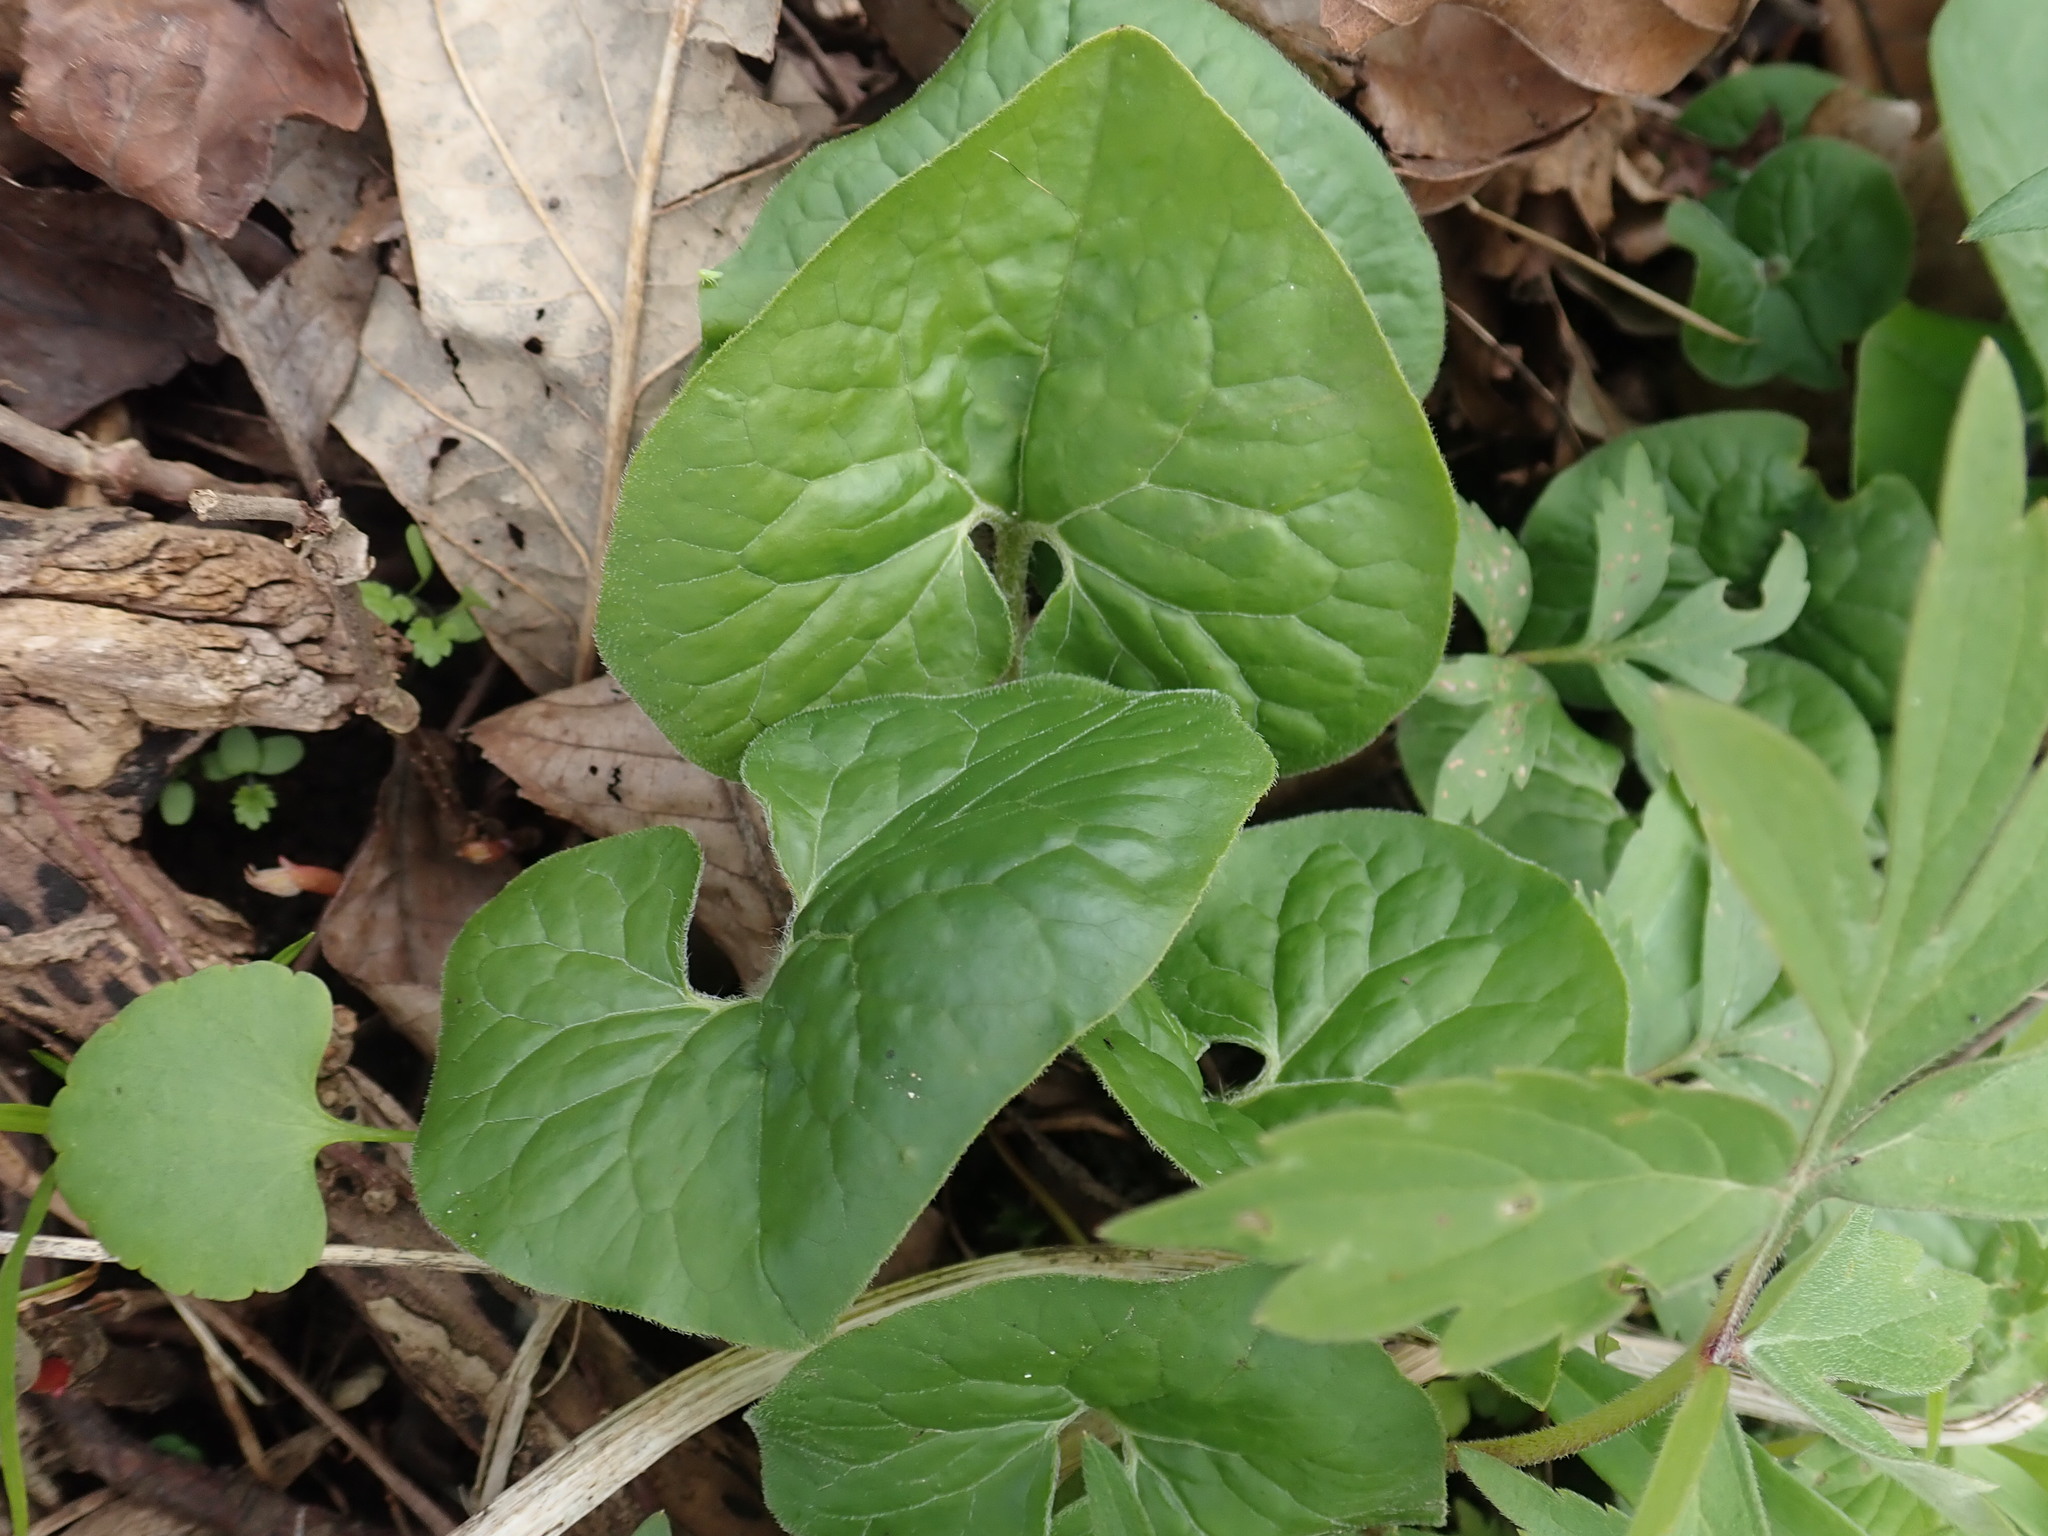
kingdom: Plantae
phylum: Tracheophyta
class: Magnoliopsida
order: Piperales
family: Aristolochiaceae
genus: Asarum
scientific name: Asarum canadense
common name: Wild ginger
